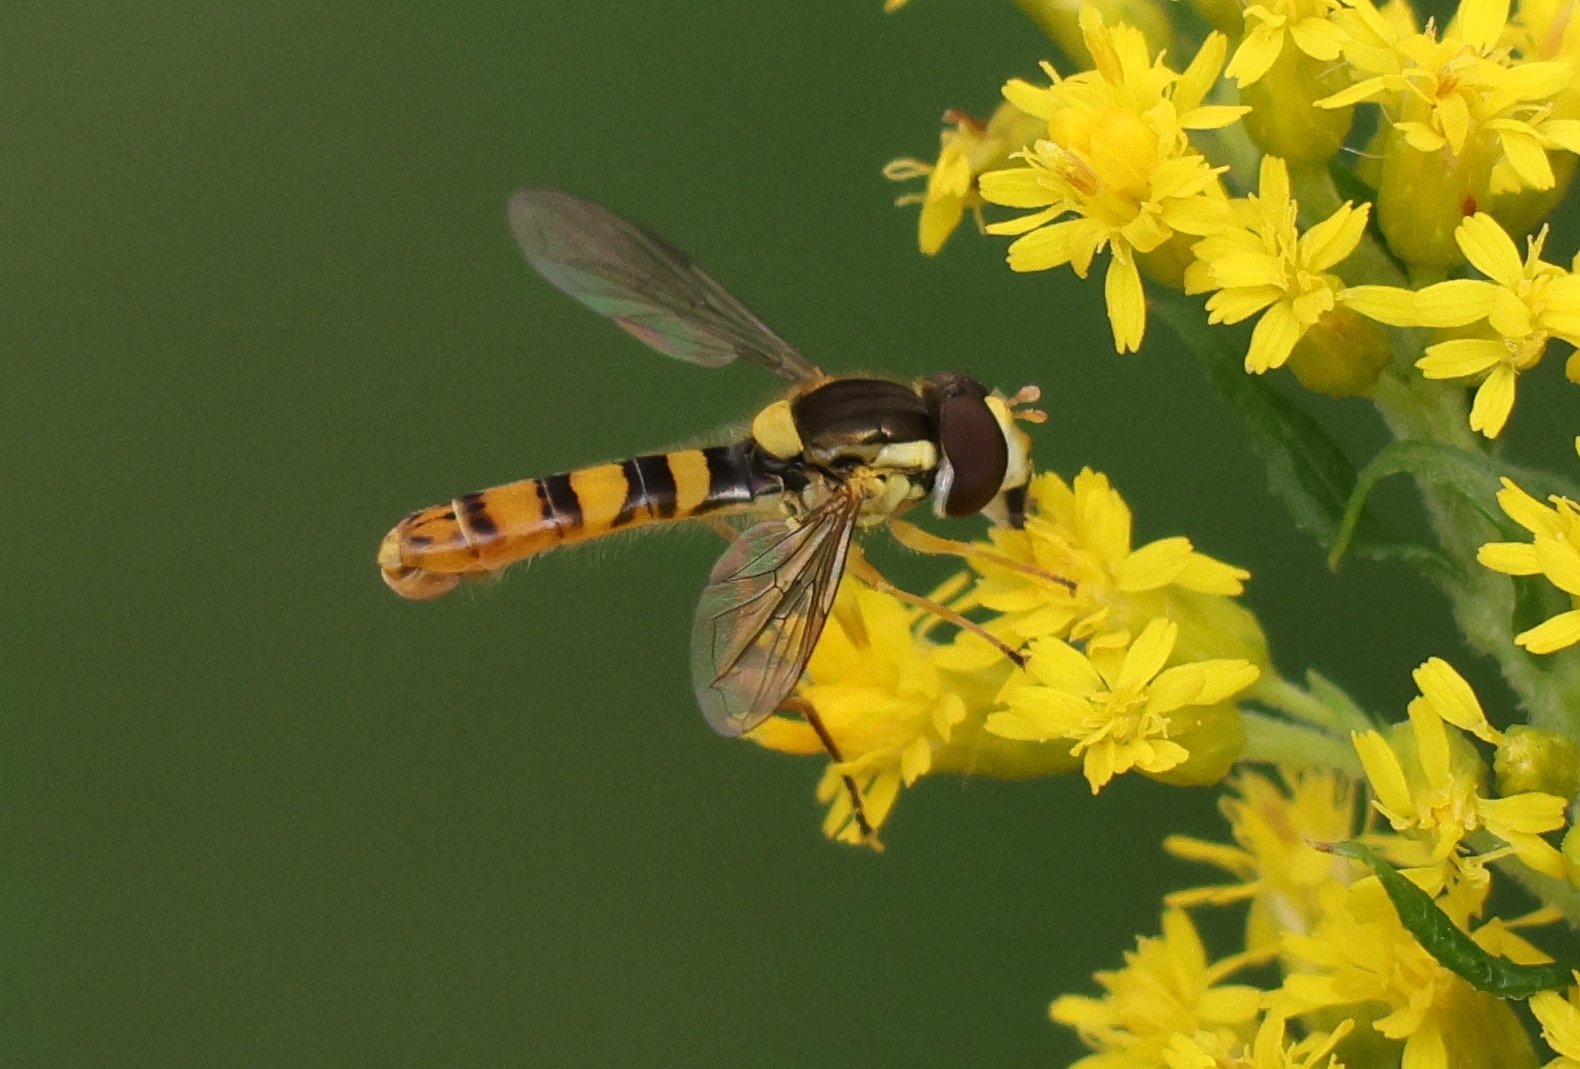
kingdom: Animalia
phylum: Arthropoda
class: Insecta
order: Diptera
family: Syrphidae
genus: Sphaerophoria
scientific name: Sphaerophoria philantha
